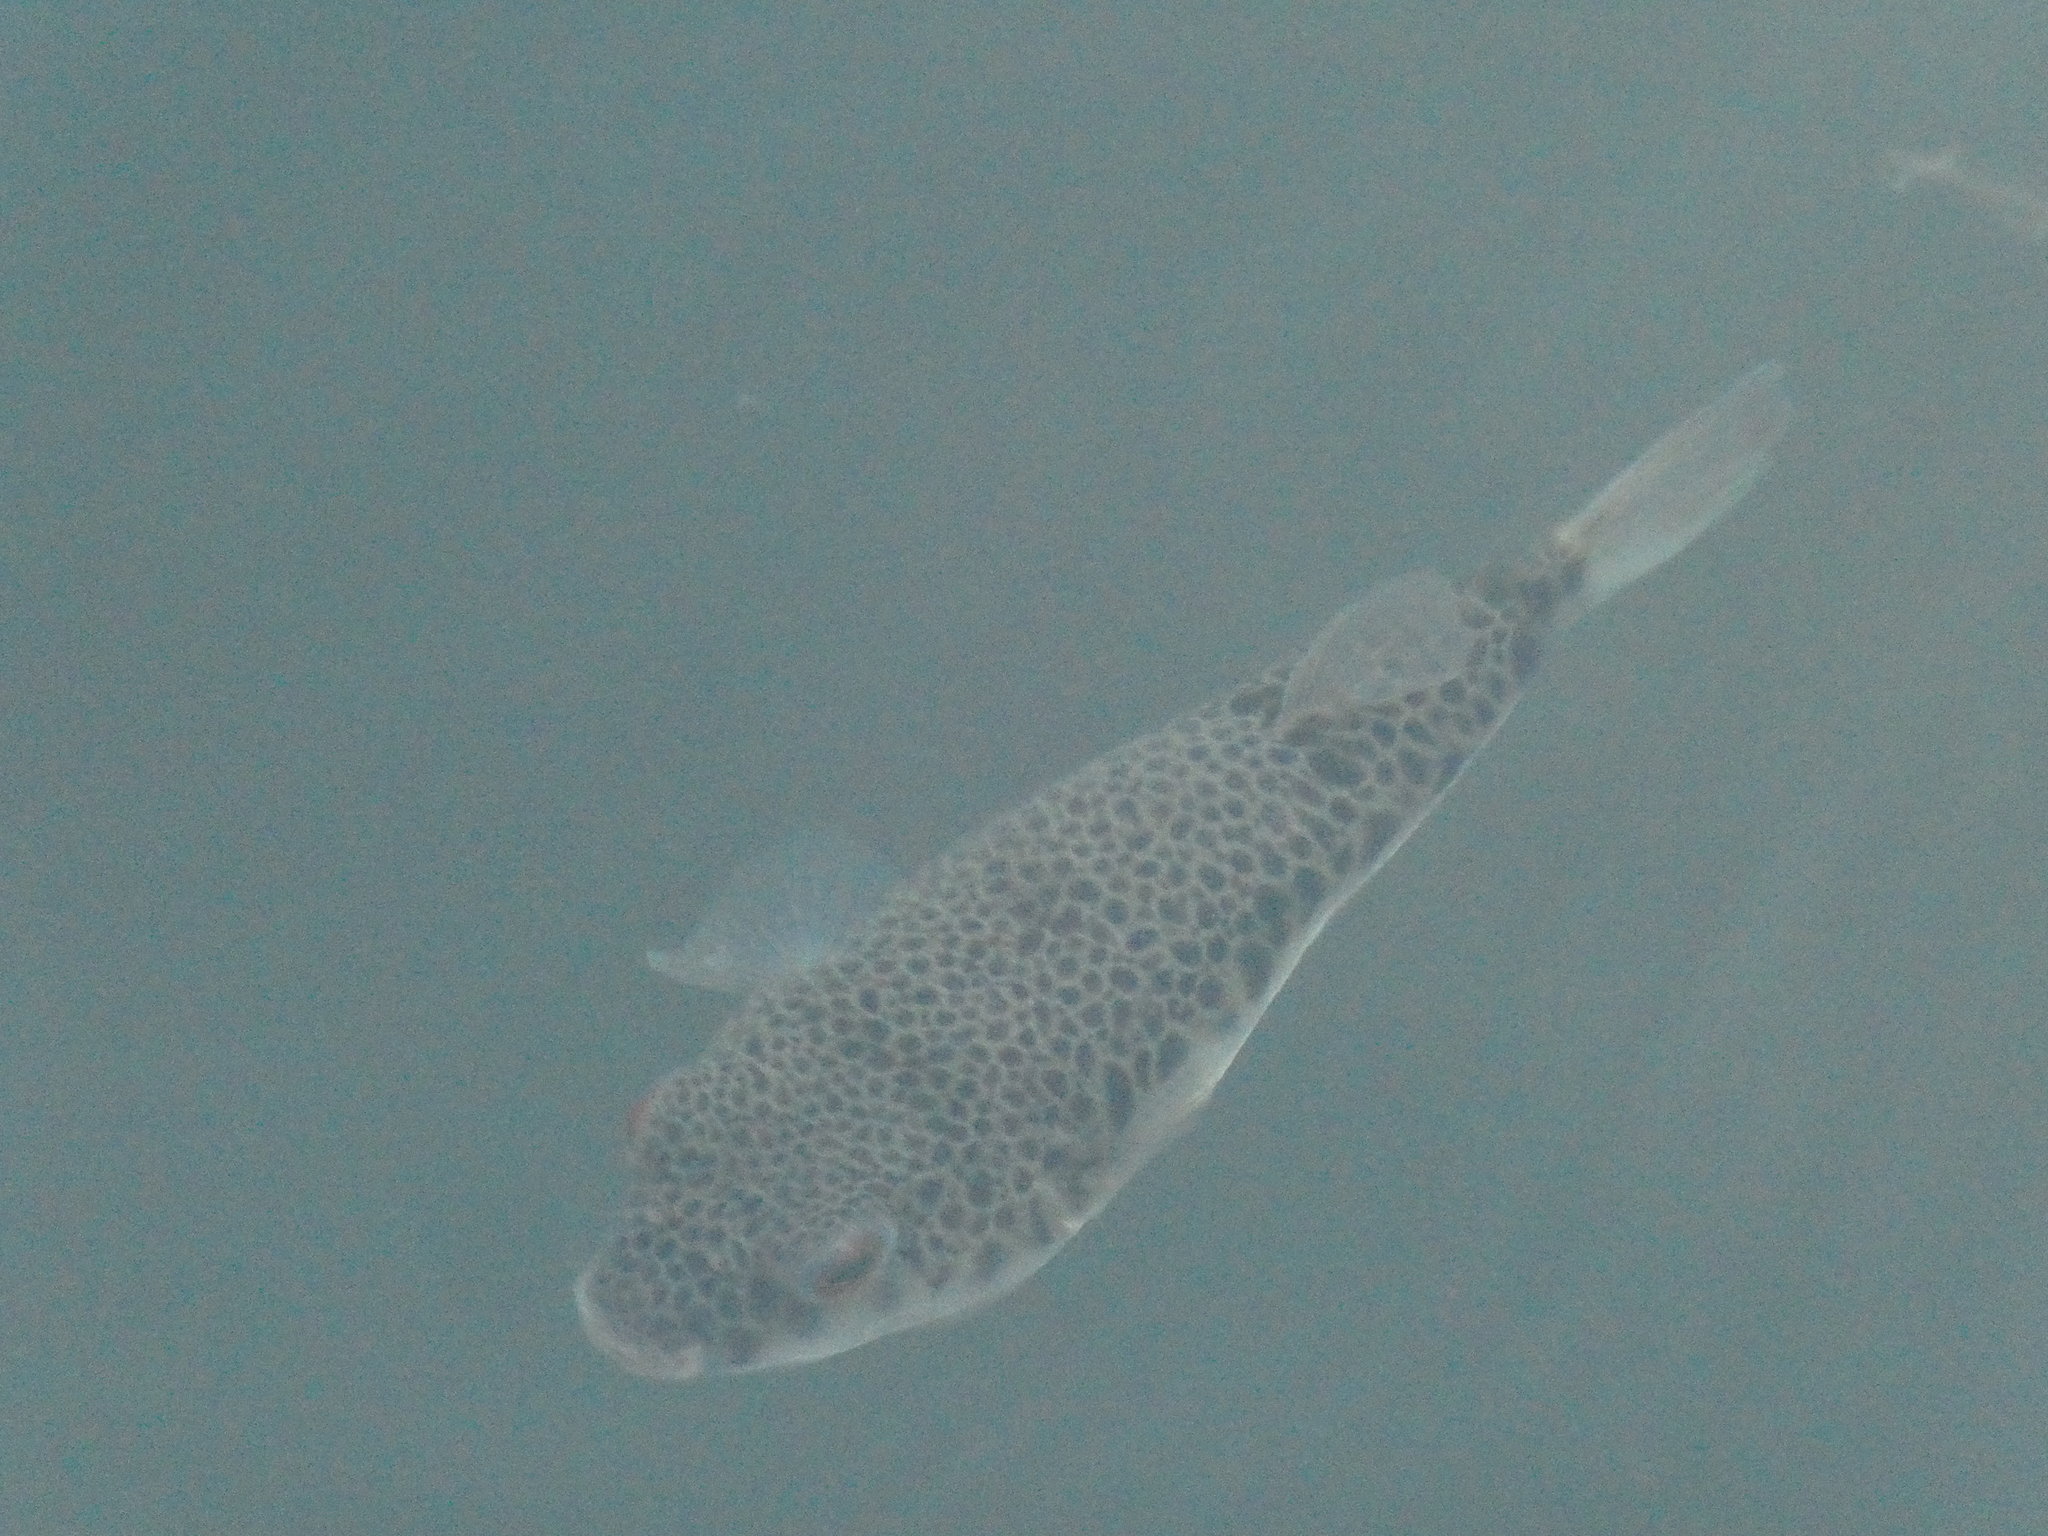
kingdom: Animalia
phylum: Chordata
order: Tetraodontiformes
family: Tetraodontidae
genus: Tetractenos
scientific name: Tetractenos hamiltoni
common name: Common toadfish
